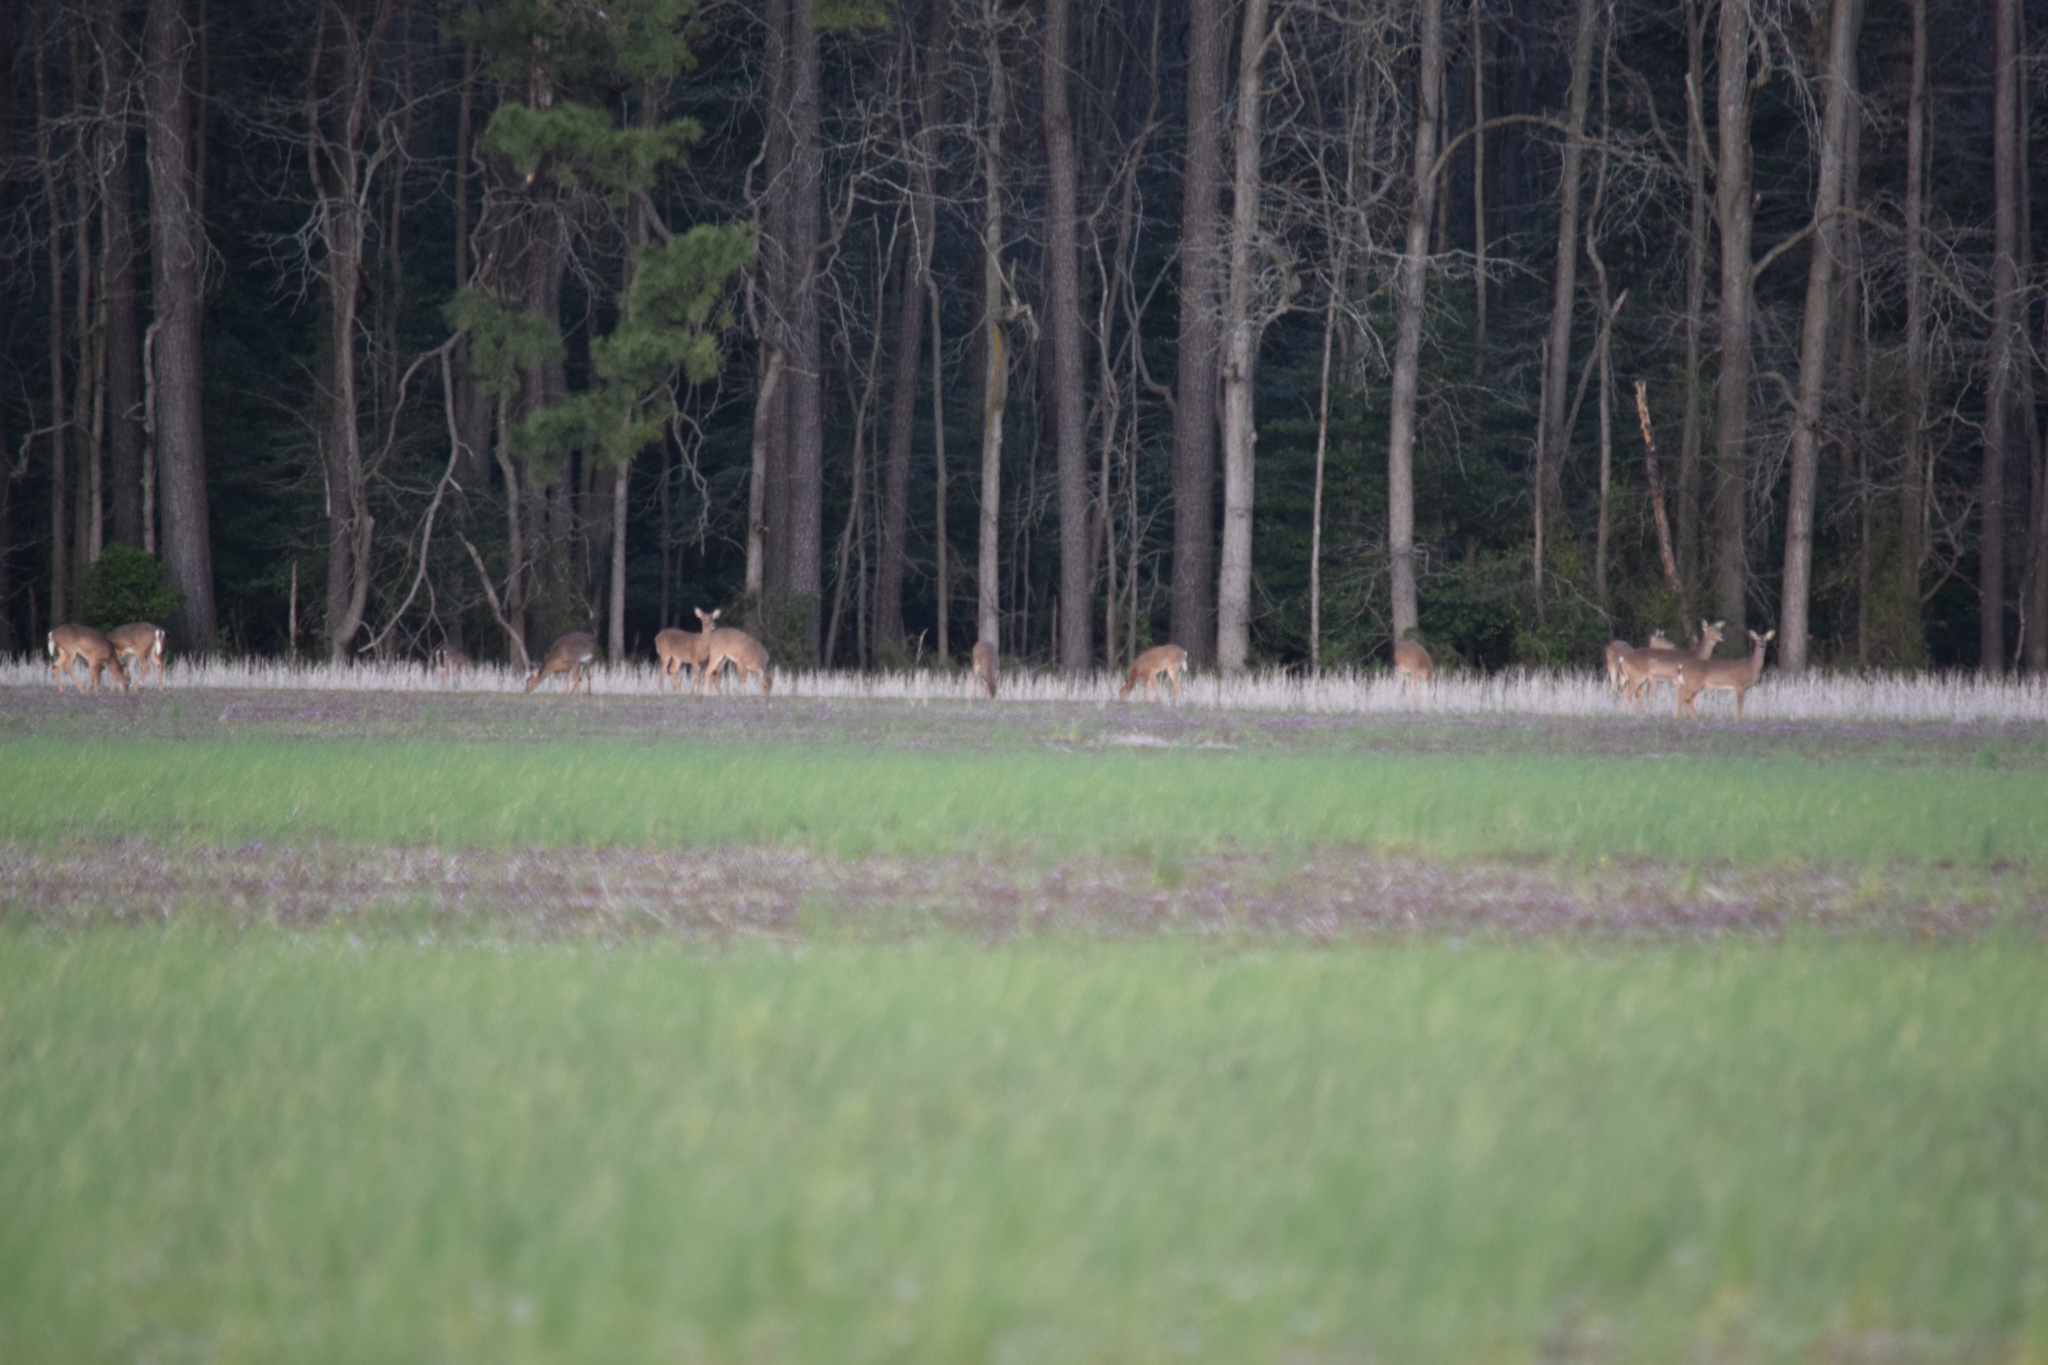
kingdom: Animalia
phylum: Chordata
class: Mammalia
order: Artiodactyla
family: Cervidae
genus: Odocoileus
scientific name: Odocoileus virginianus
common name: White-tailed deer
